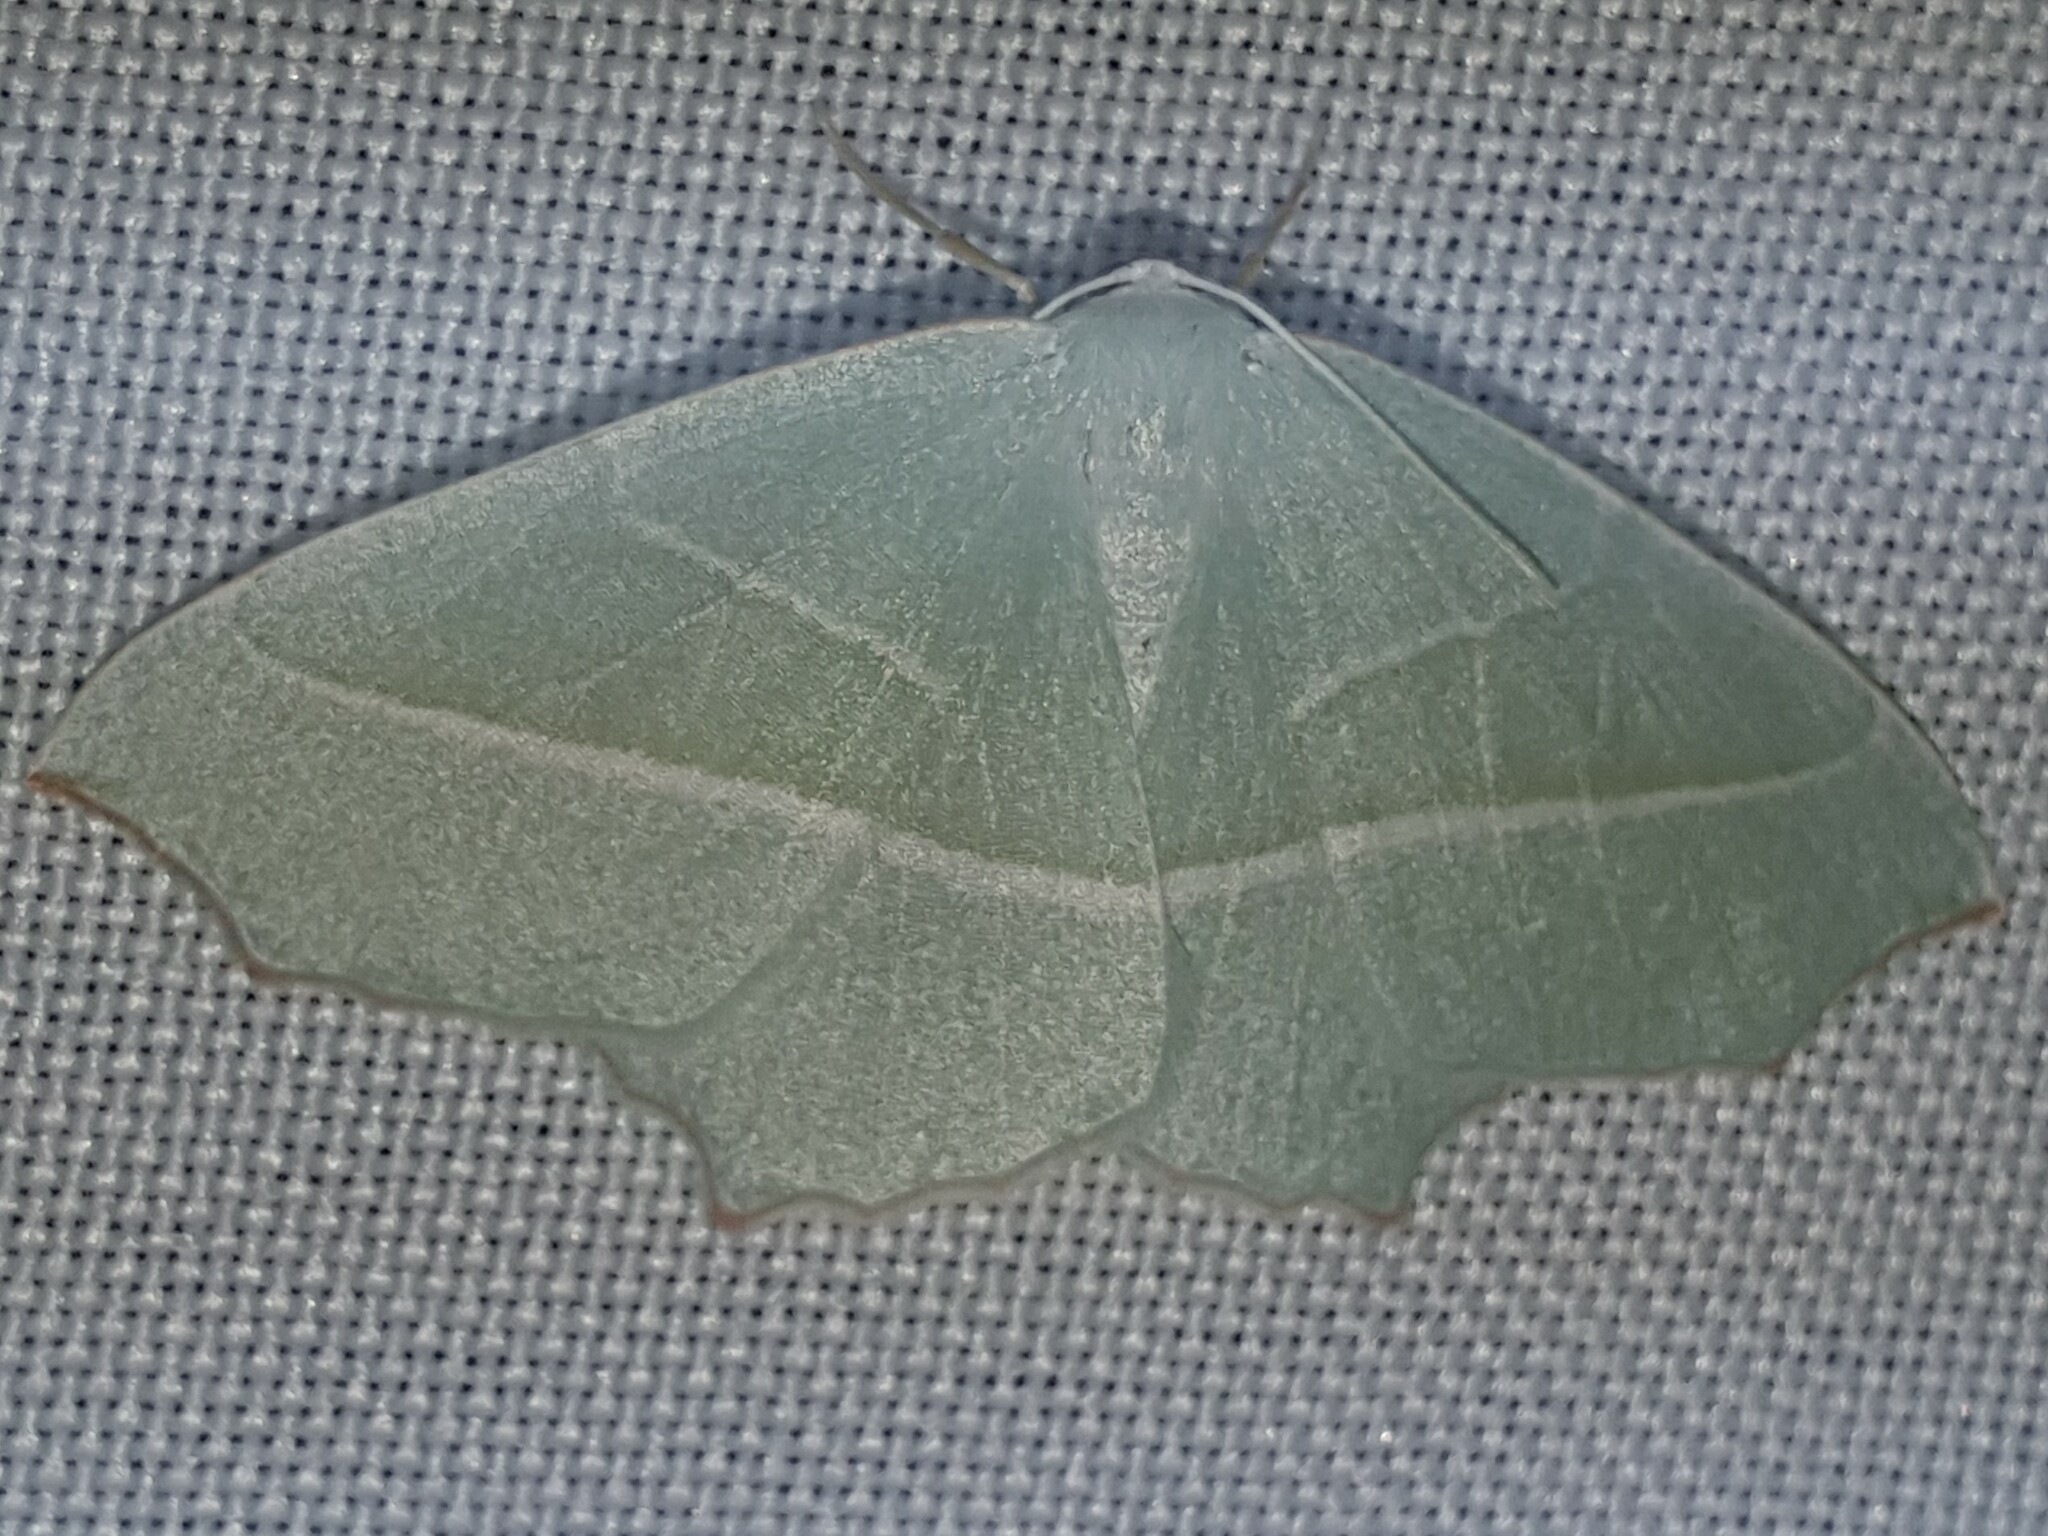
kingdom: Animalia
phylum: Arthropoda
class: Insecta
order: Lepidoptera
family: Geometridae
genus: Campaea
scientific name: Campaea margaritaria
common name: Light emerald
